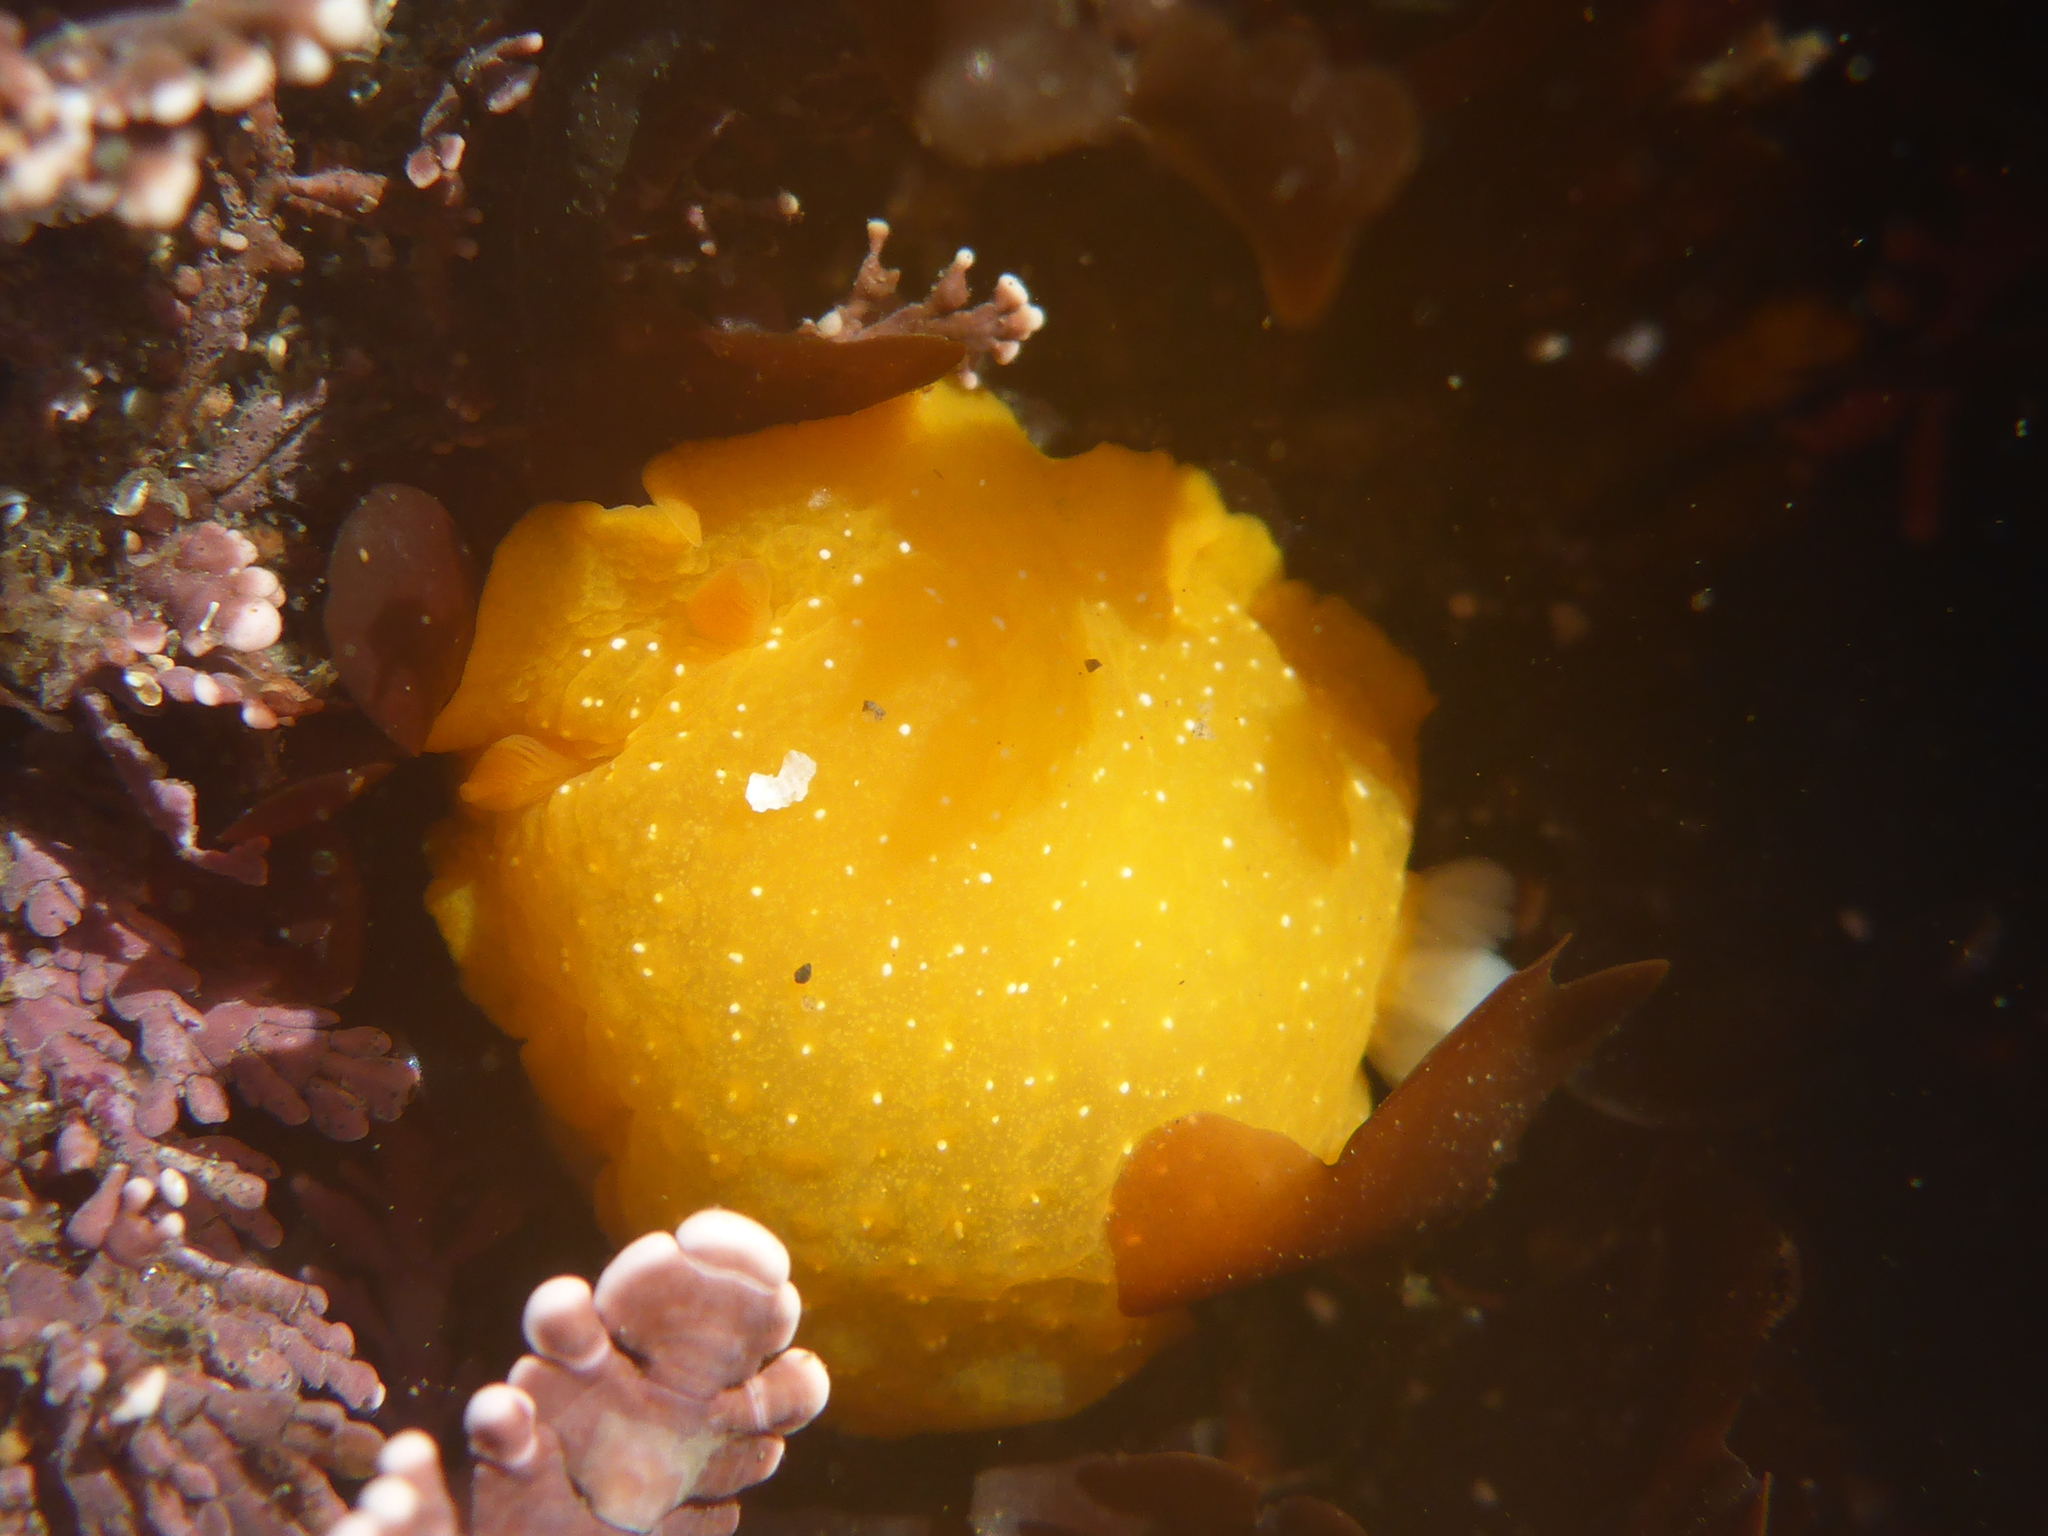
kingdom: Animalia
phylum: Mollusca
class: Gastropoda
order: Nudibranchia
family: Dendrodorididae
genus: Doriopsilla
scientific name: Doriopsilla fulva
